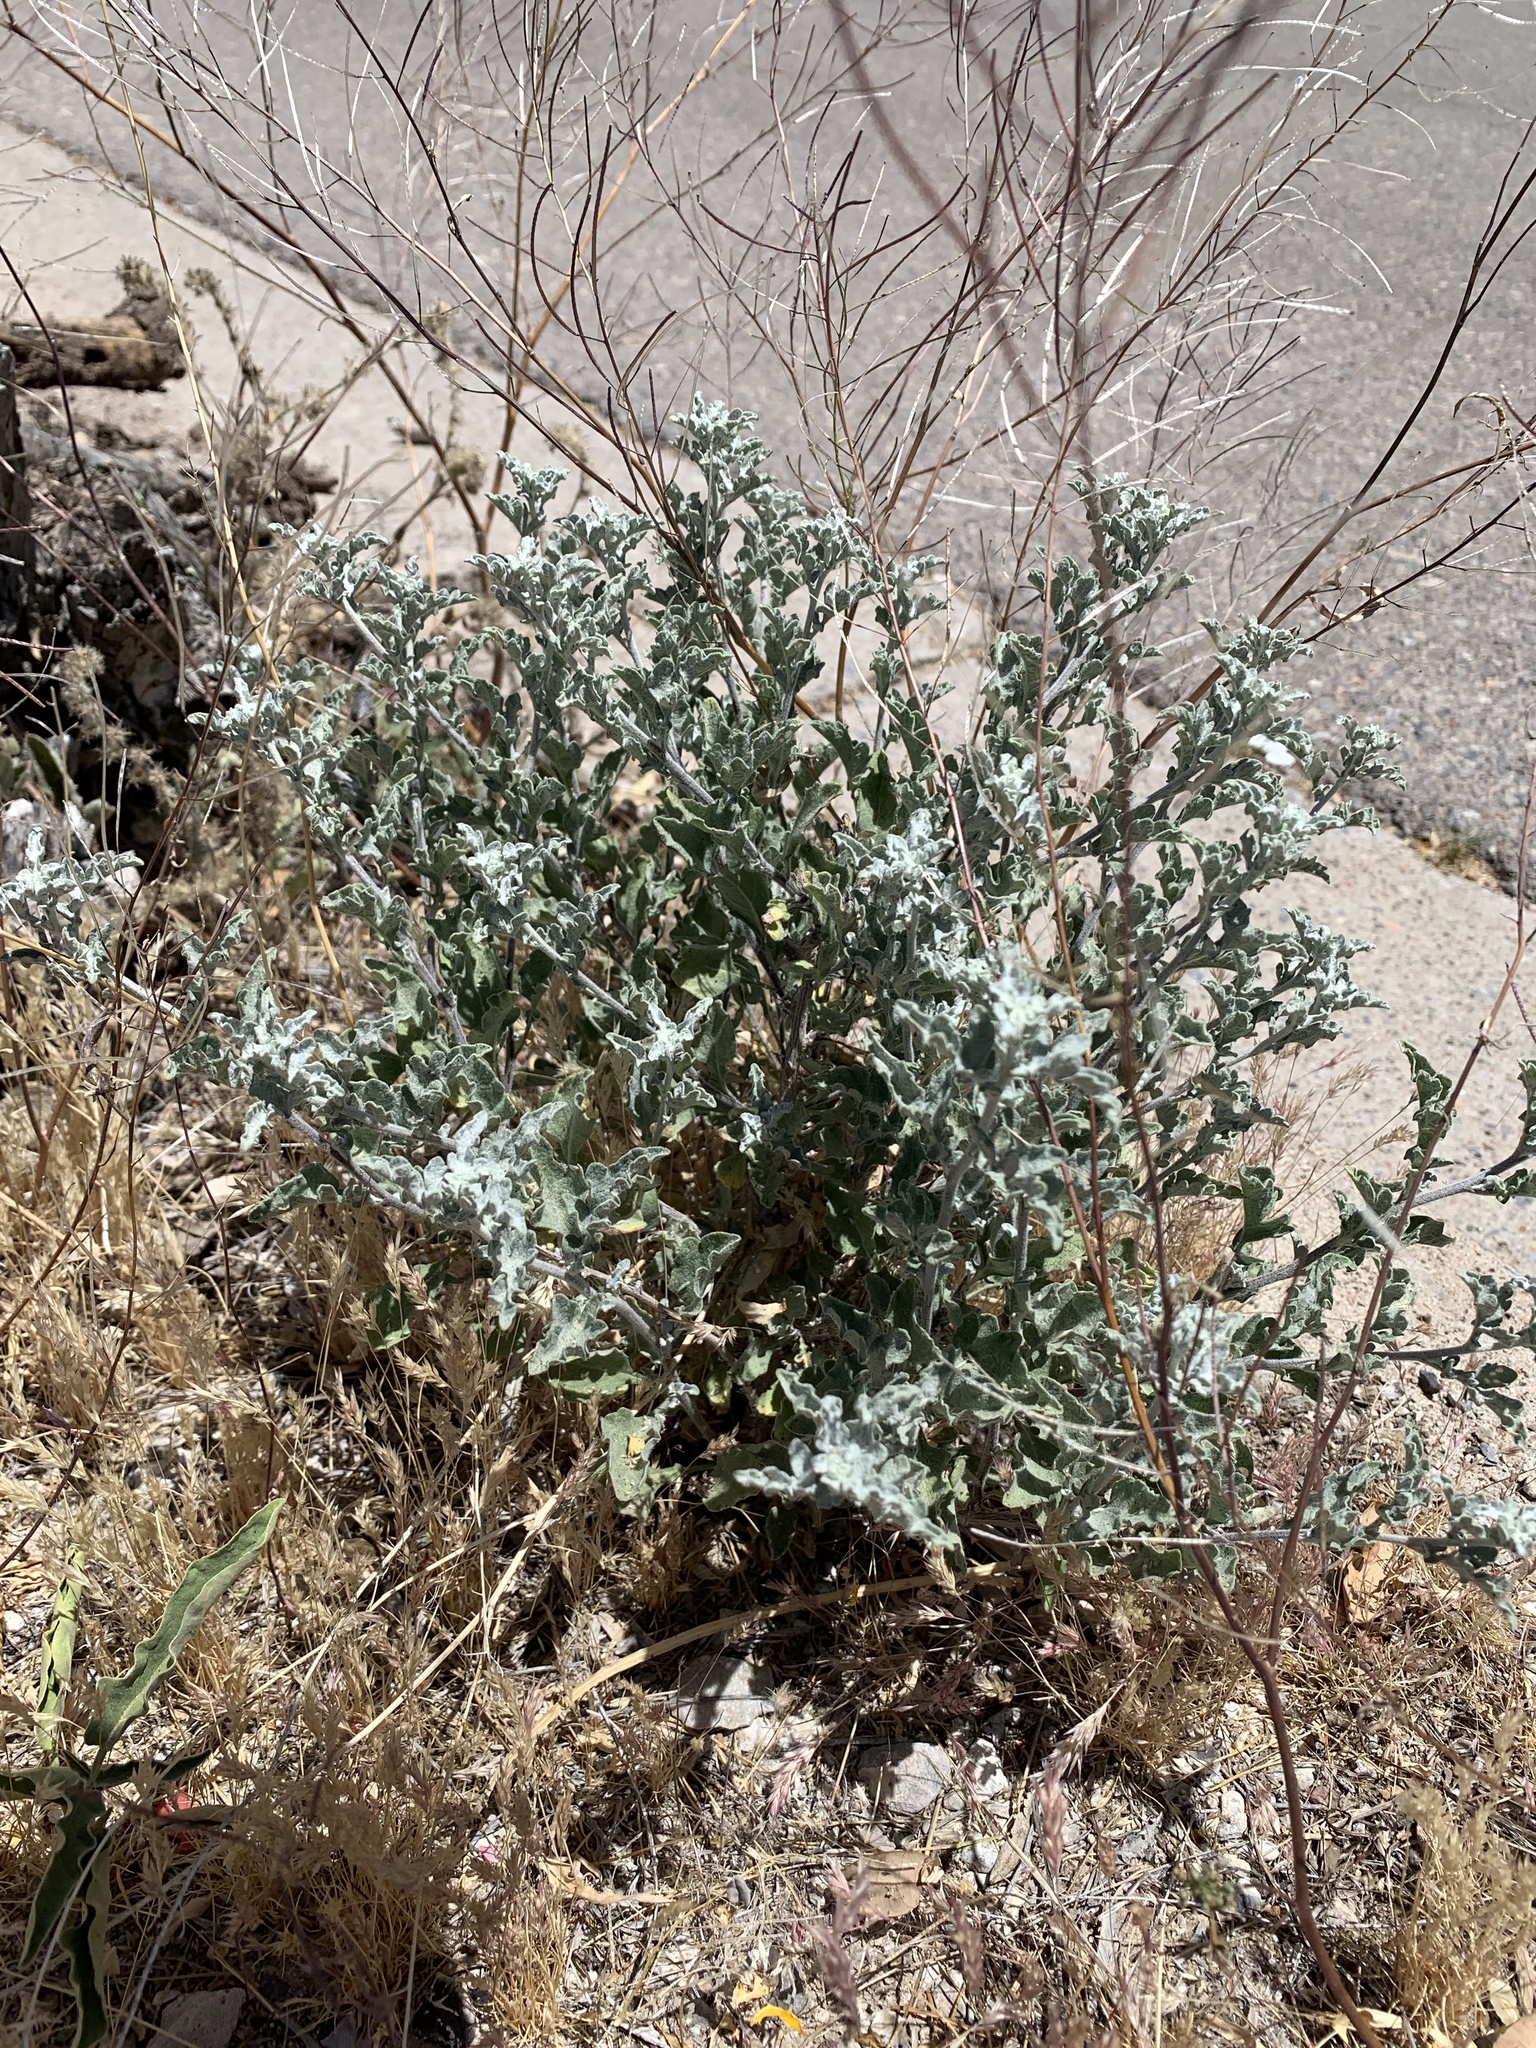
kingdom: Plantae
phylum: Tracheophyta
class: Magnoliopsida
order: Asterales
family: Asteraceae
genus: Parthenium
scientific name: Parthenium incanum
